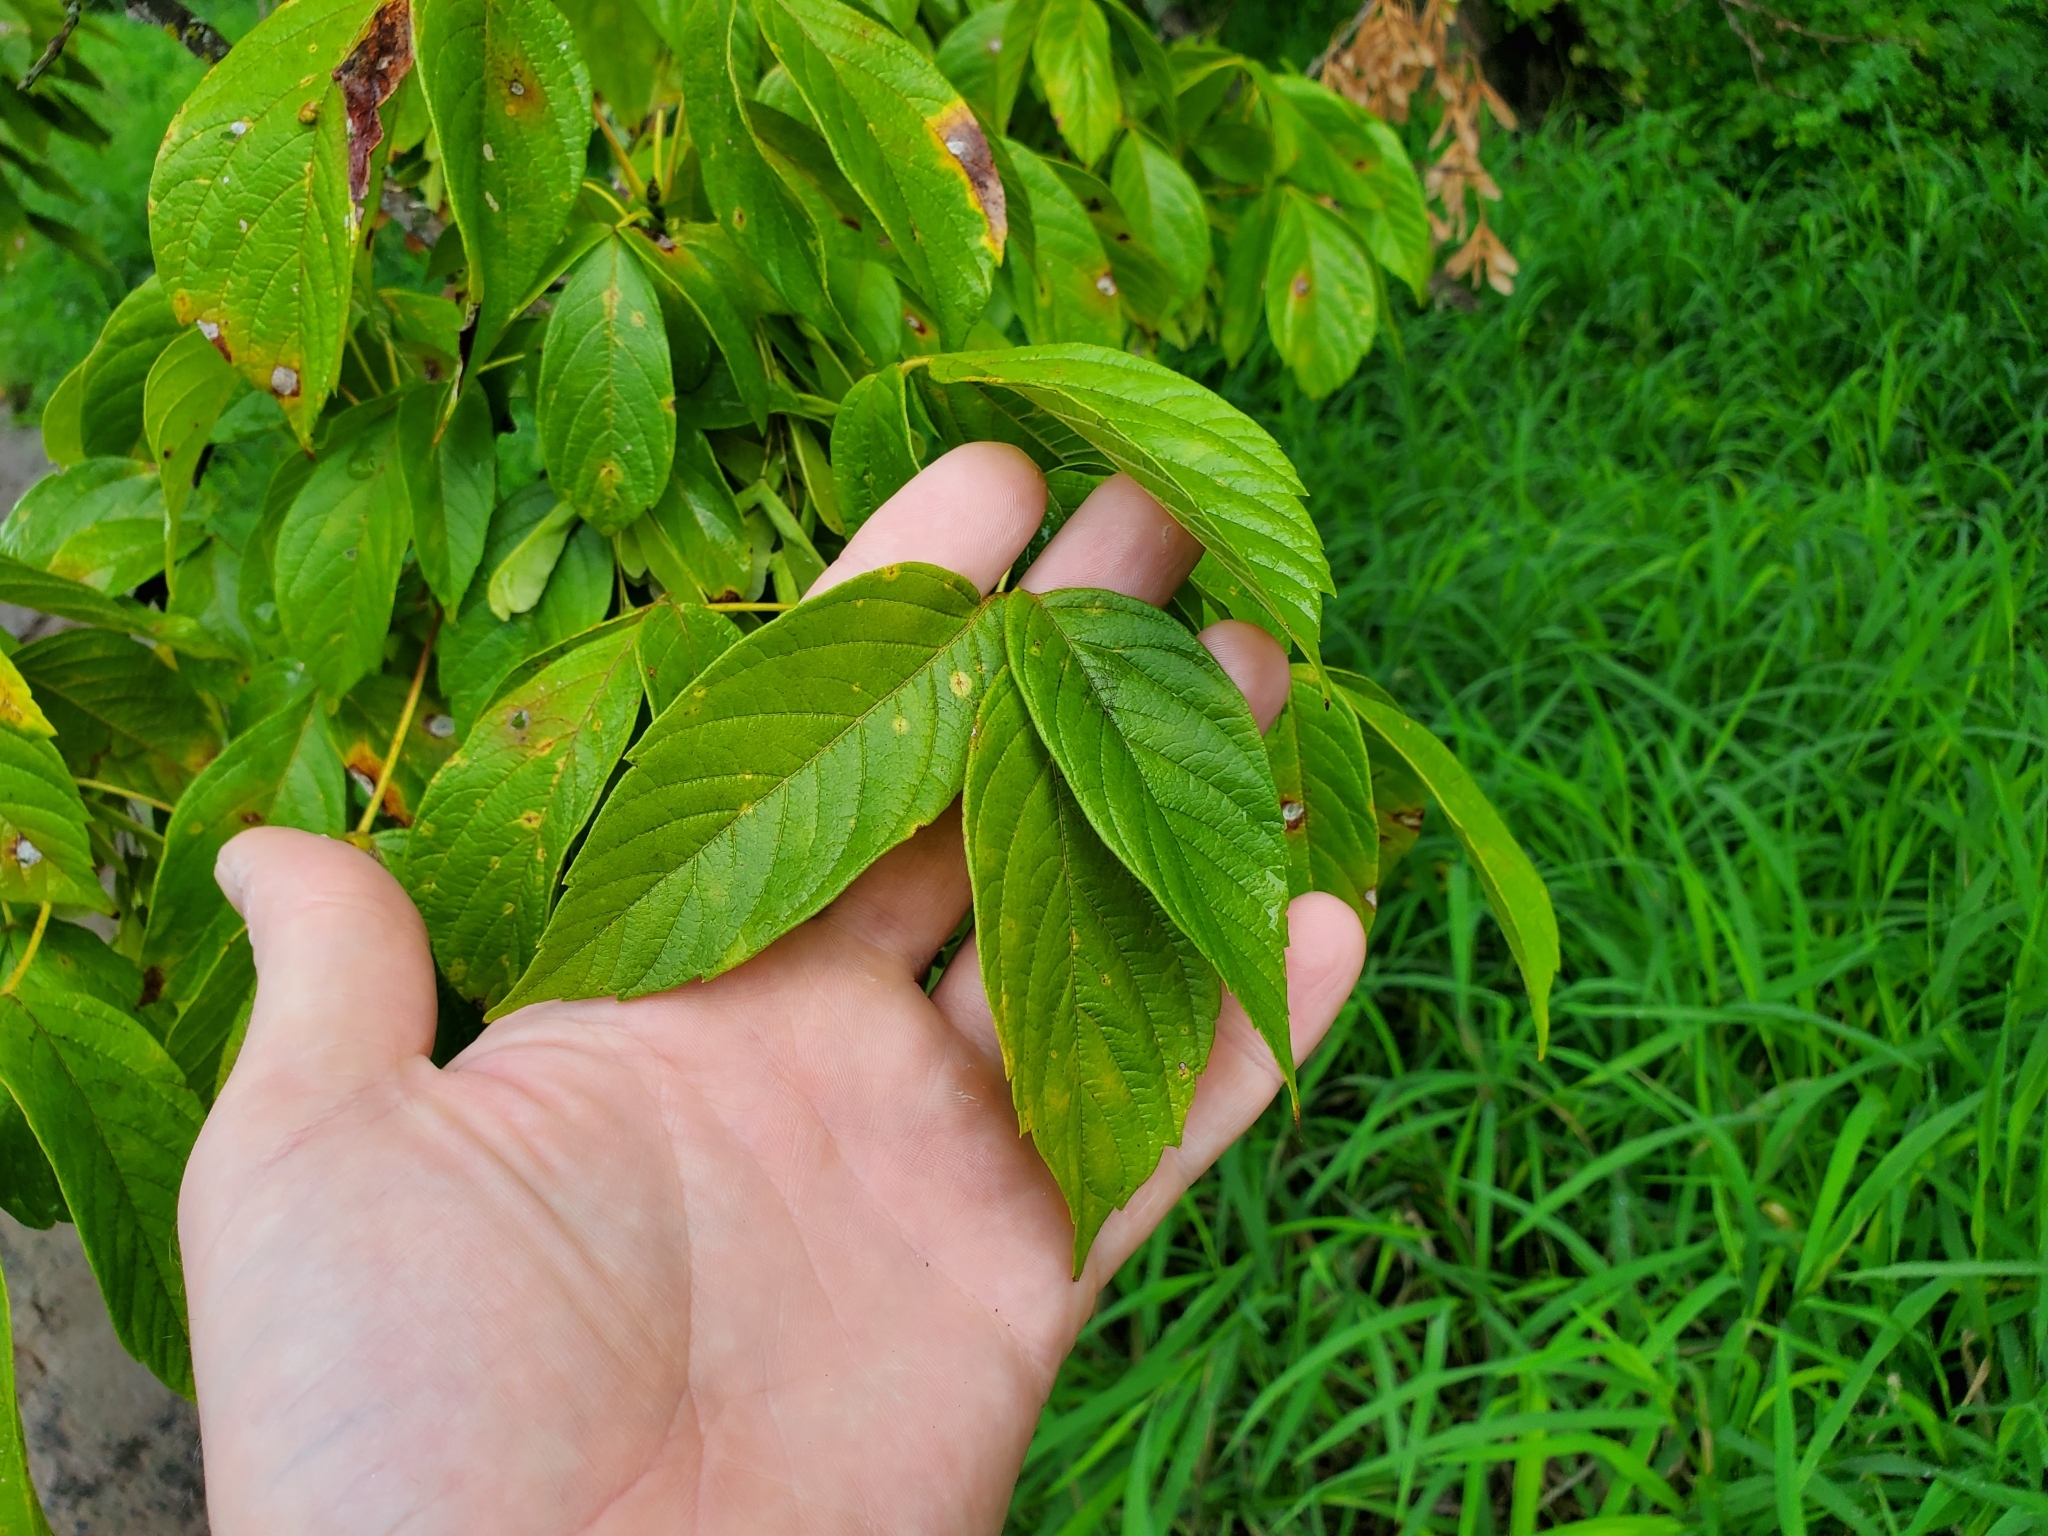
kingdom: Plantae
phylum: Tracheophyta
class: Magnoliopsida
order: Sapindales
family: Sapindaceae
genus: Acer
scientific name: Acer negundo
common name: Ashleaf maple
